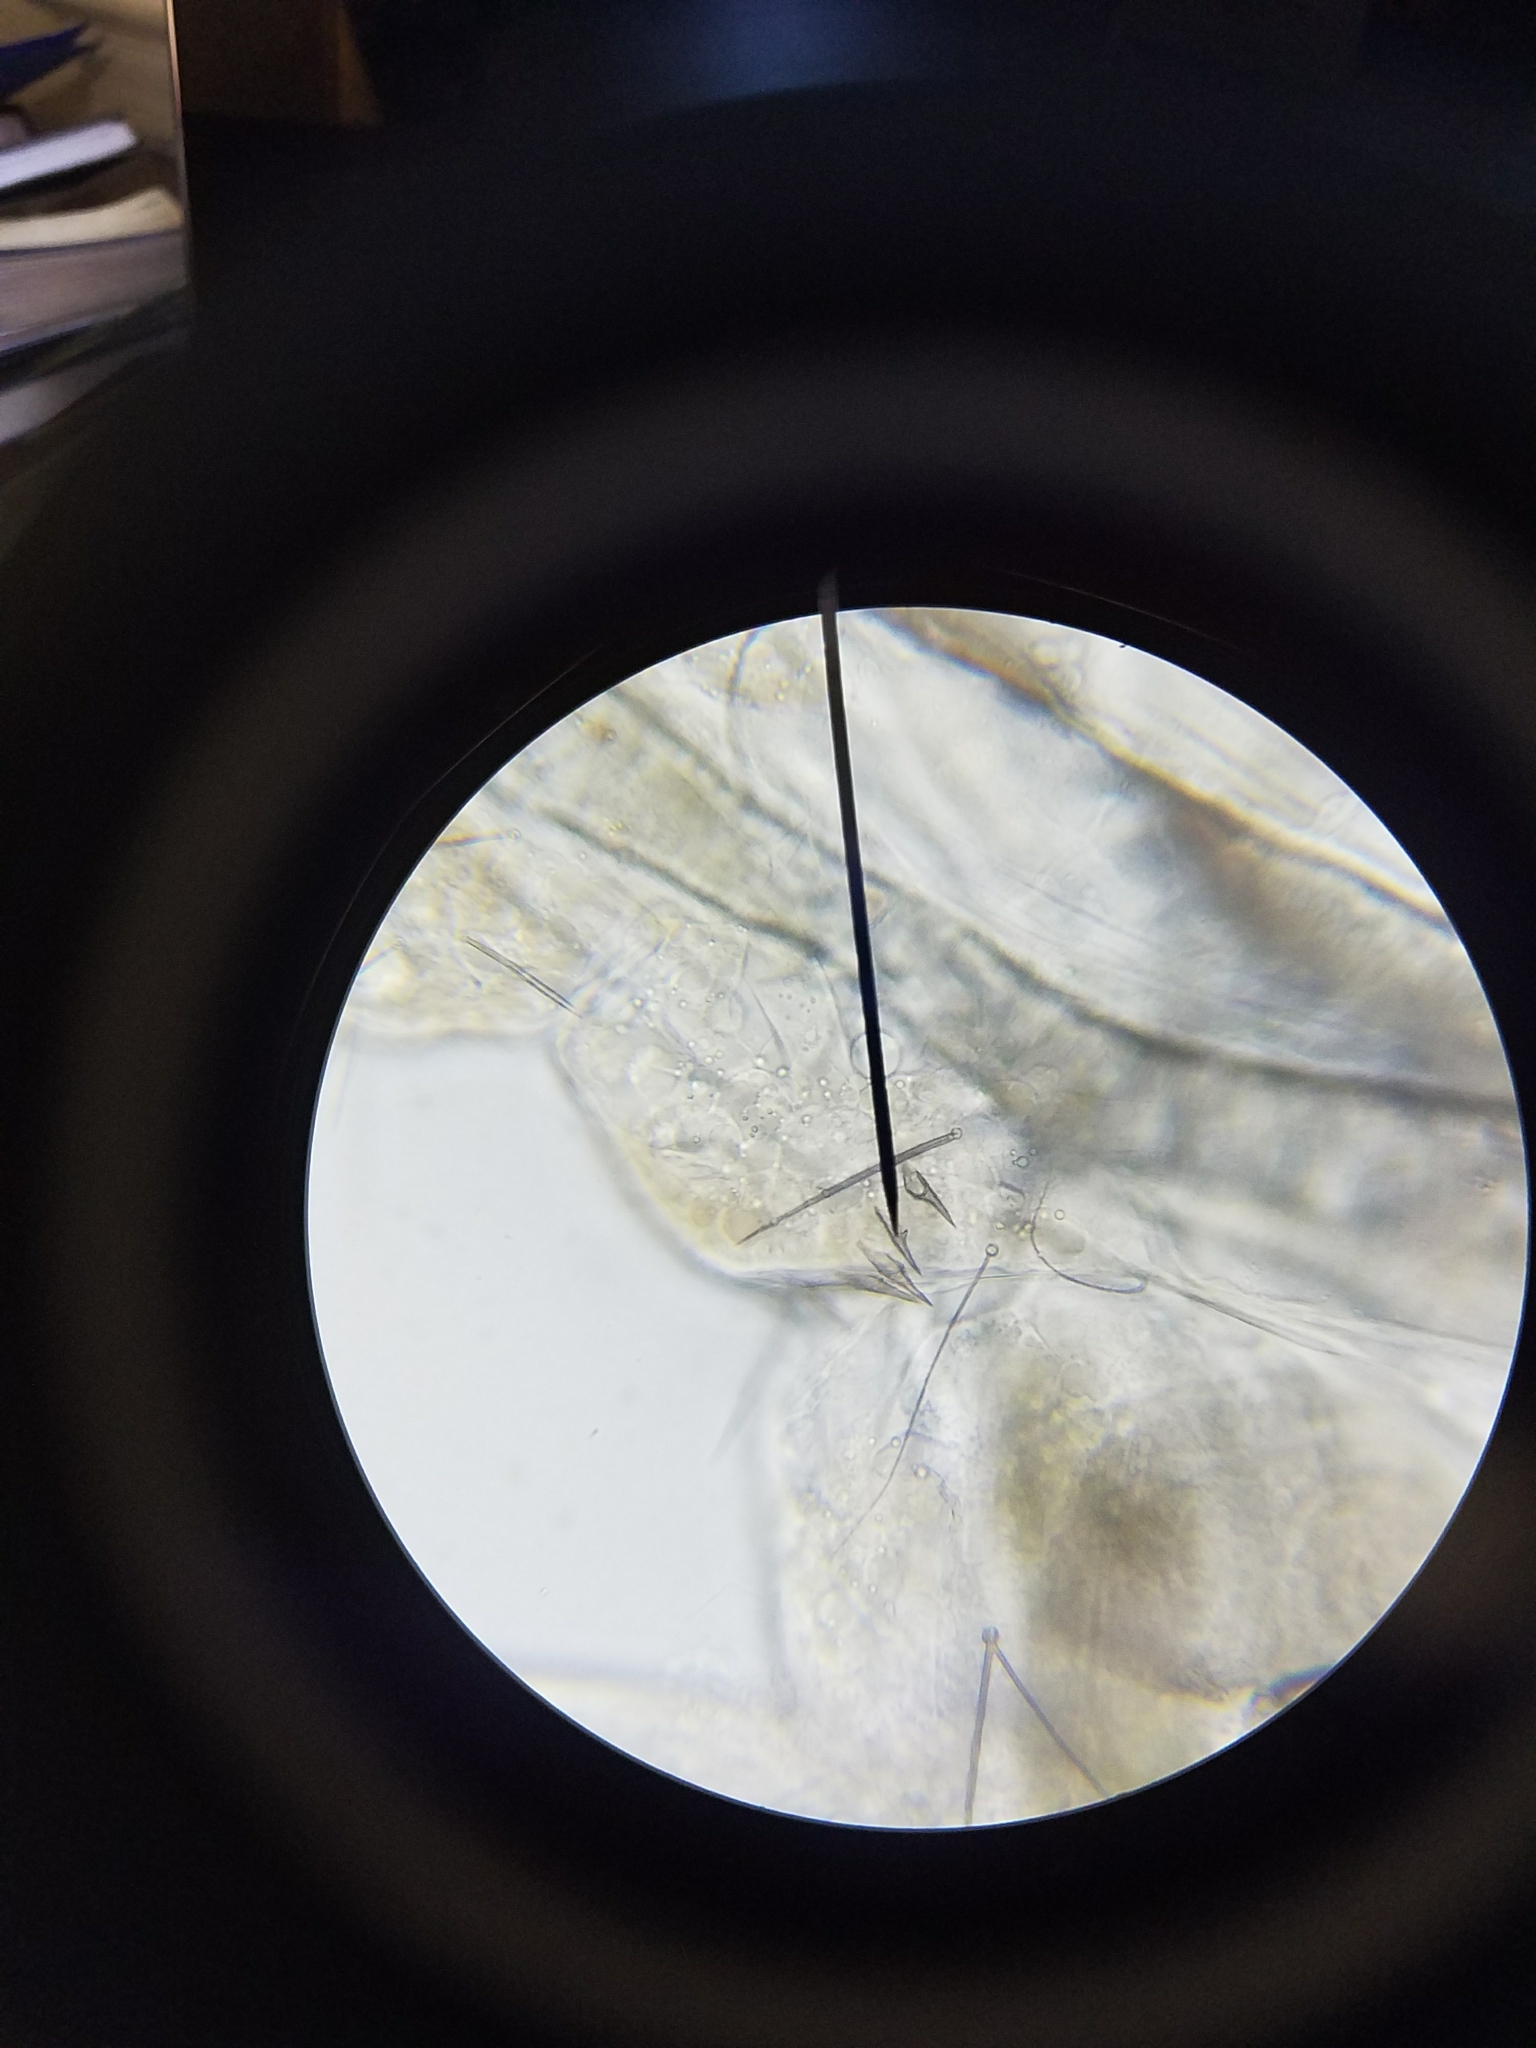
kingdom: Animalia
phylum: Arthropoda
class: Insecta
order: Diptera
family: Culicidae
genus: Aedes
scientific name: Aedes albopictus
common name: Tiger mosquito
